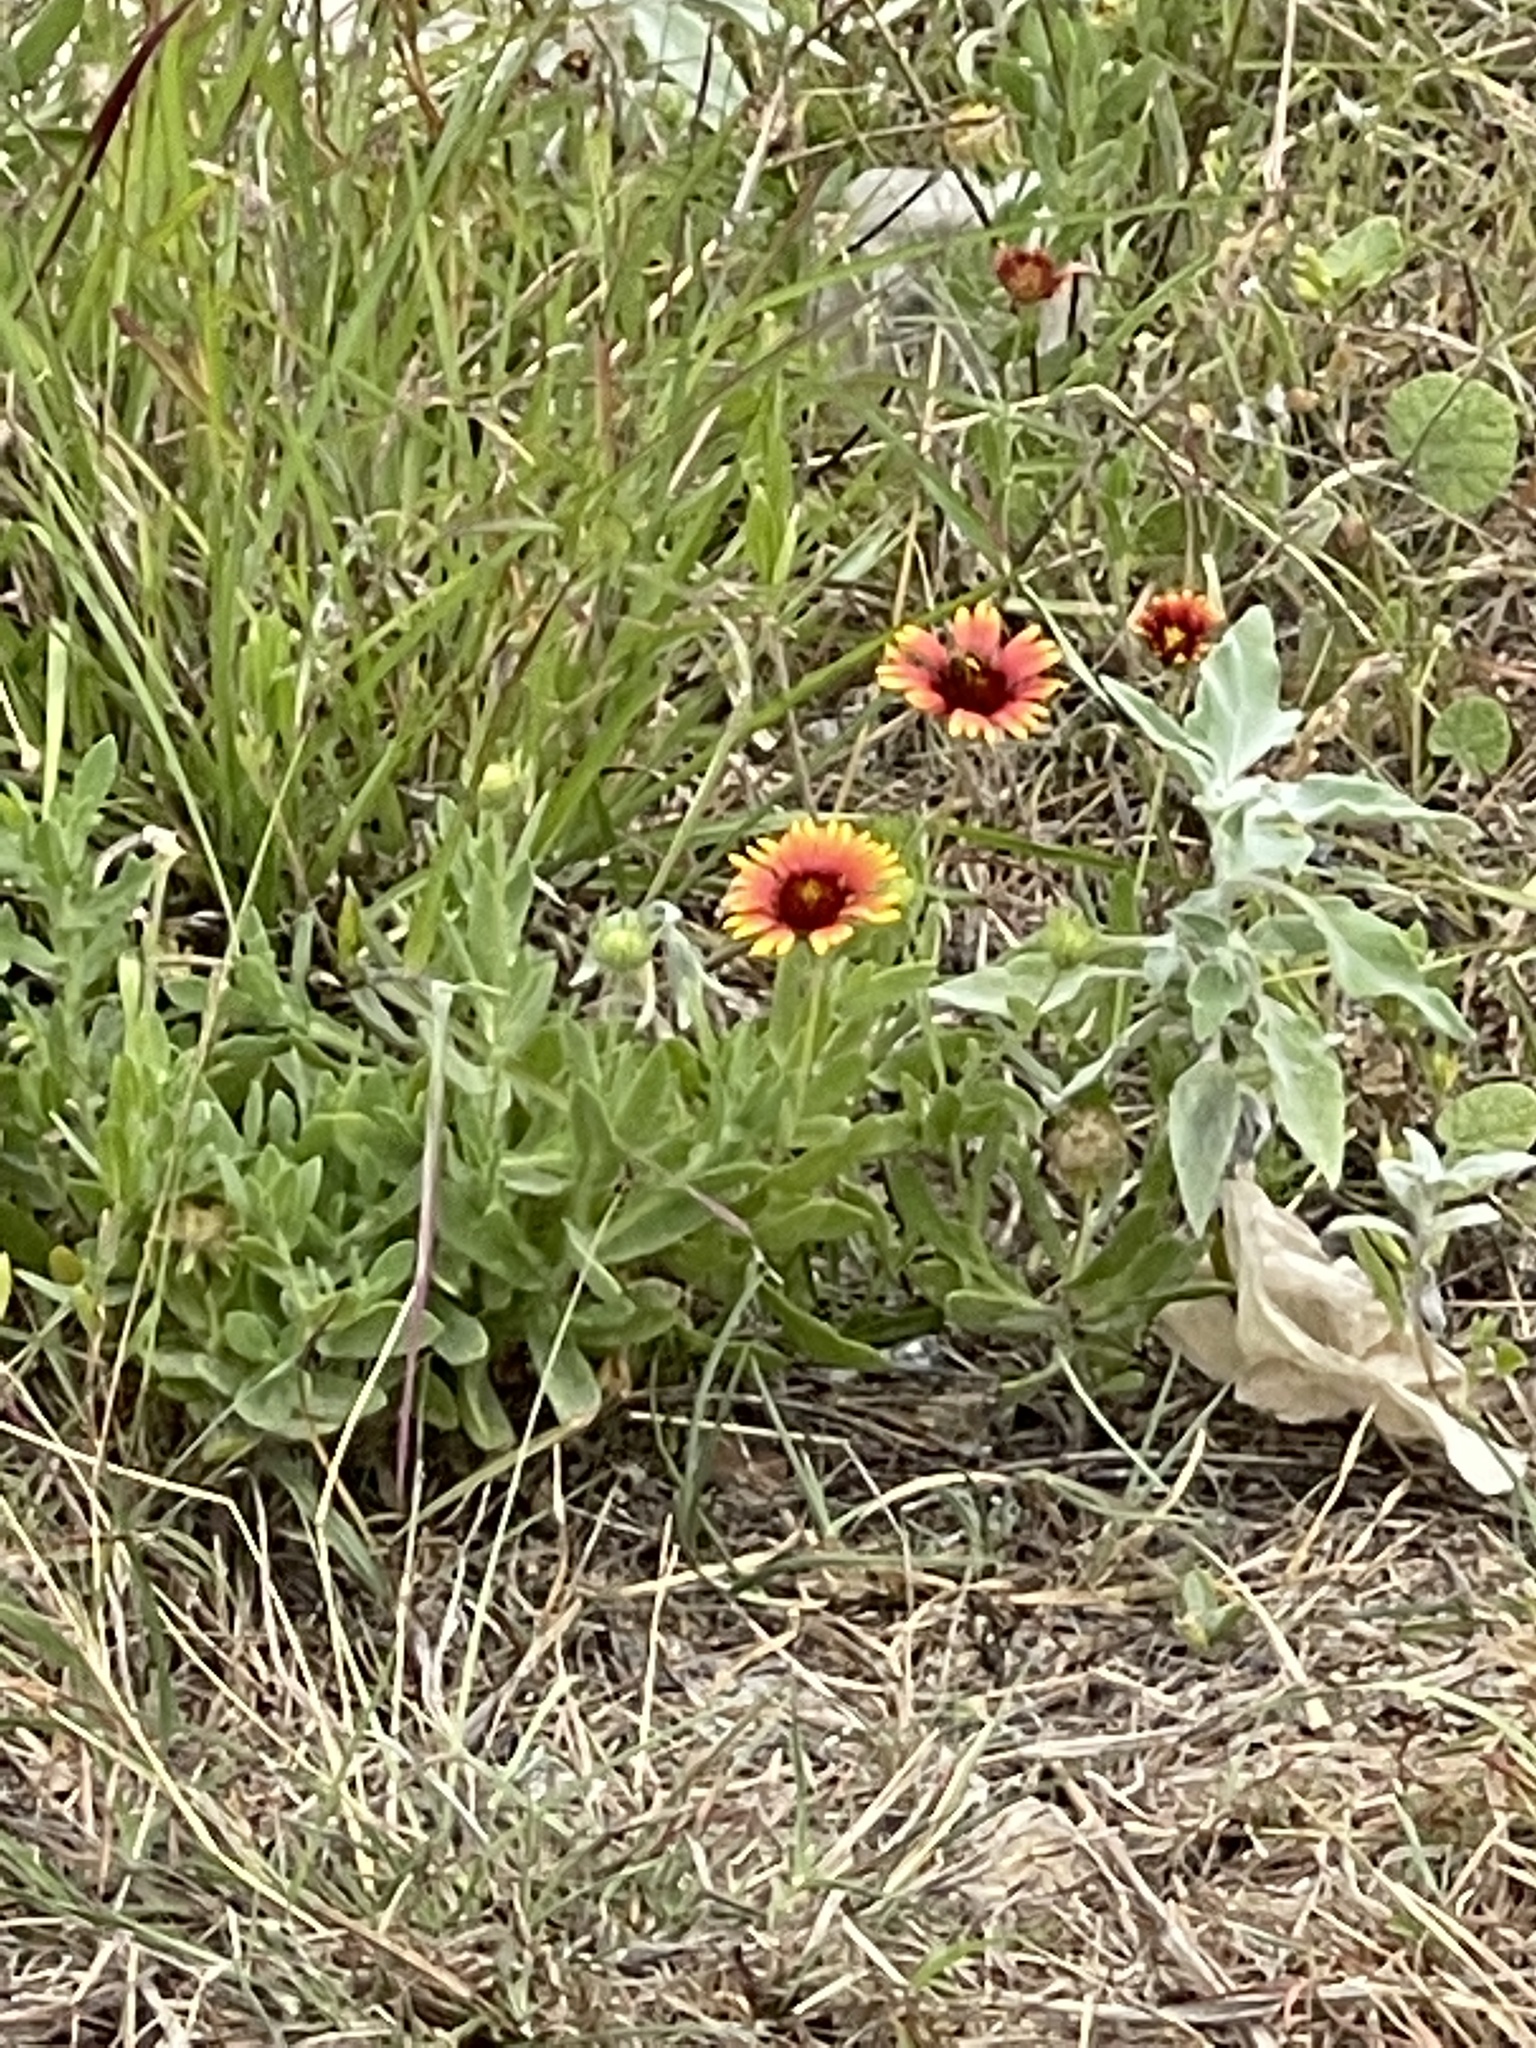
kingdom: Plantae
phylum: Tracheophyta
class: Magnoliopsida
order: Asterales
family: Asteraceae
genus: Gaillardia
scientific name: Gaillardia pulchella
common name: Firewheel
